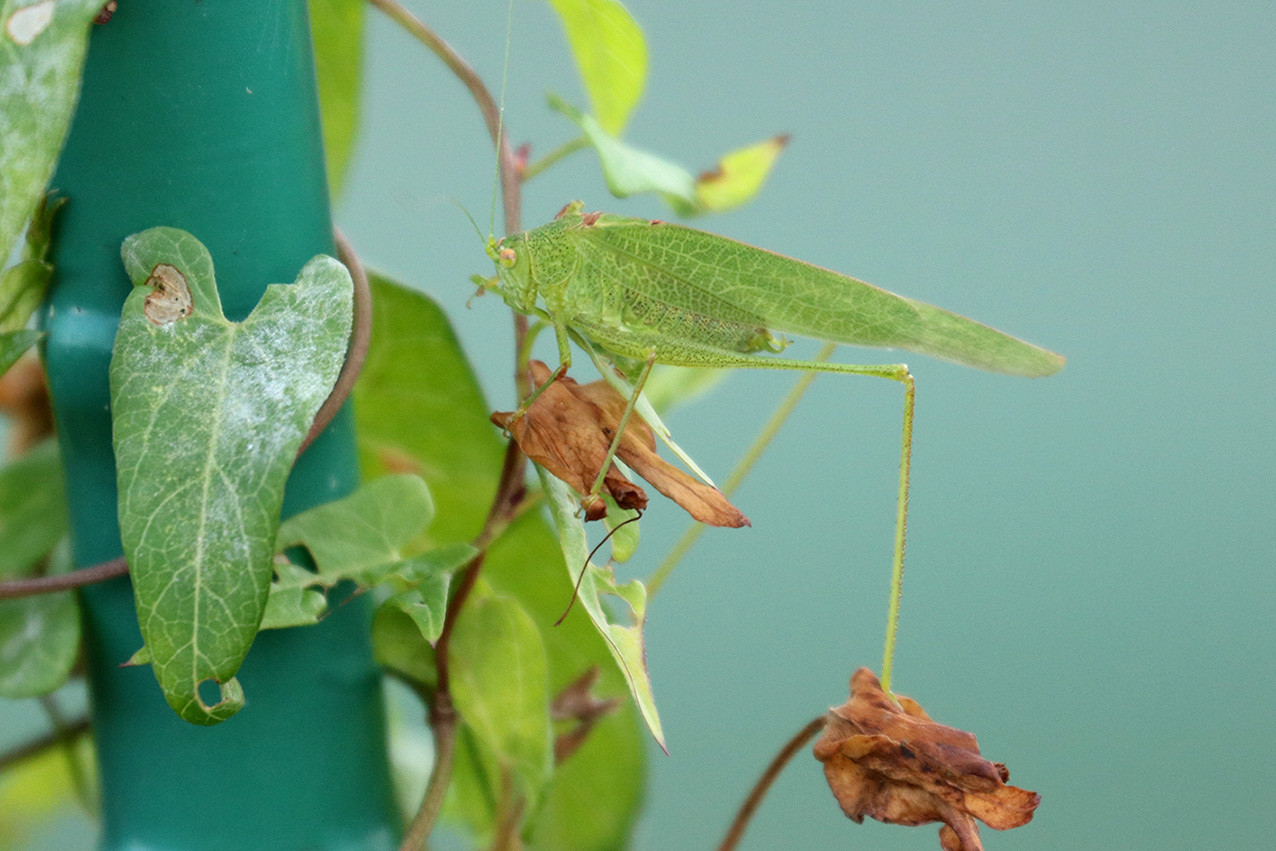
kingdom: Animalia
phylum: Arthropoda
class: Insecta
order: Orthoptera
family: Tettigoniidae
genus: Phaneroptera
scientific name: Phaneroptera nana
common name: Southern sickle bush-cricket
